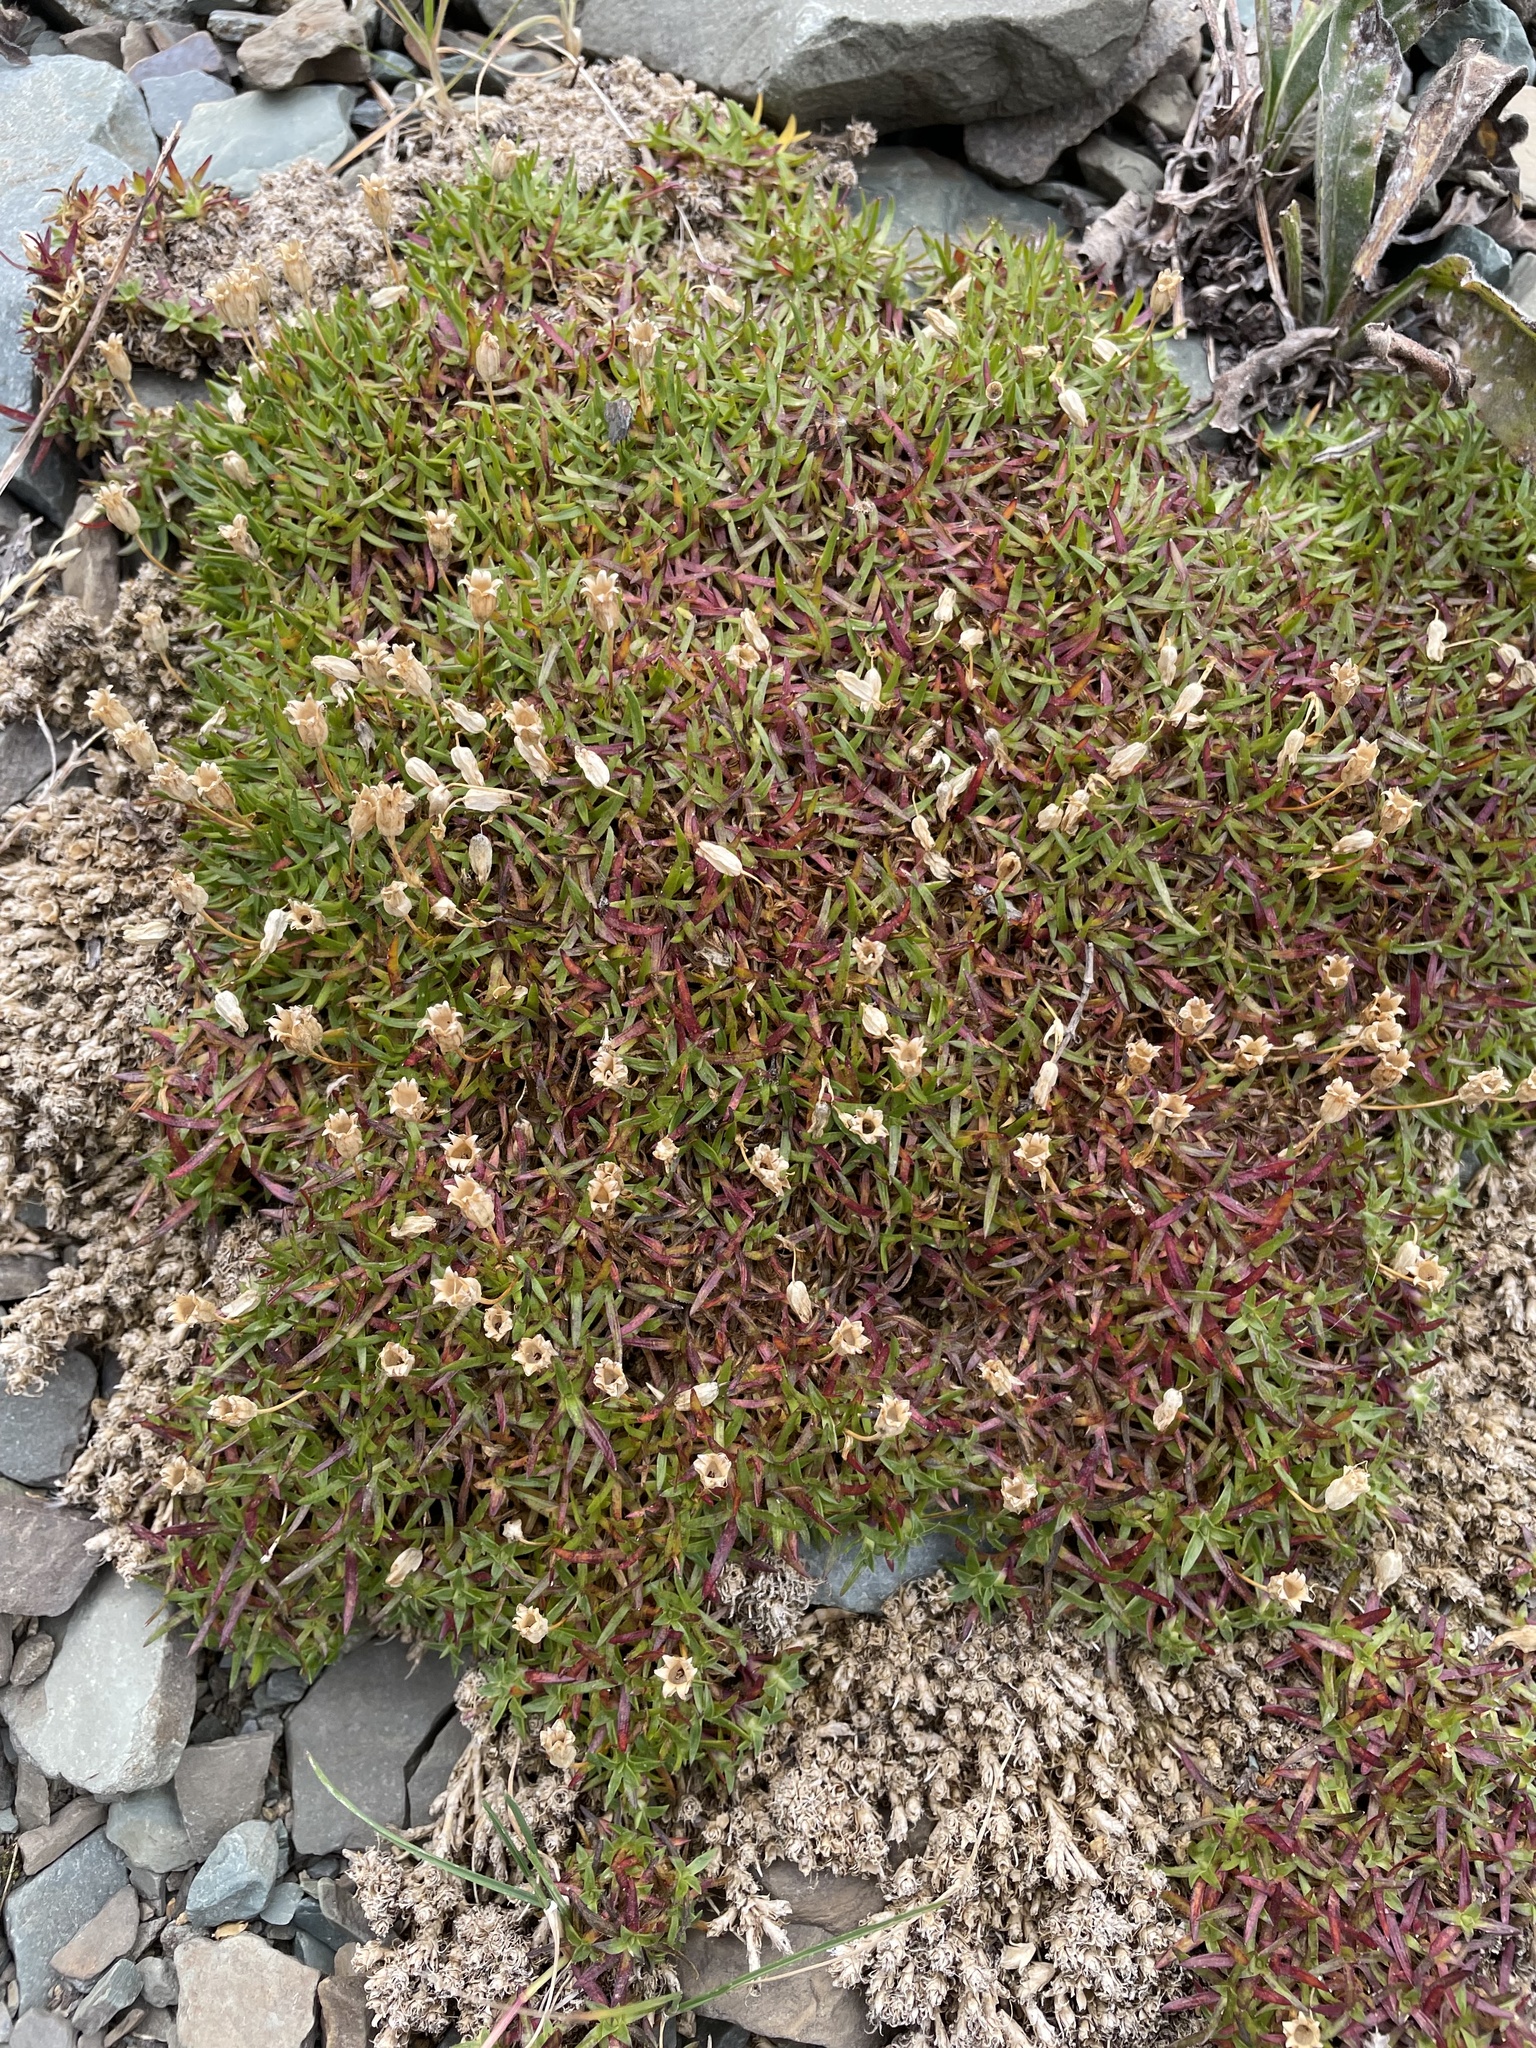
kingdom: Plantae
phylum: Tracheophyta
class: Magnoliopsida
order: Caryophyllales
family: Caryophyllaceae
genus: Silene
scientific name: Silene acaulis
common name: Moss campion
